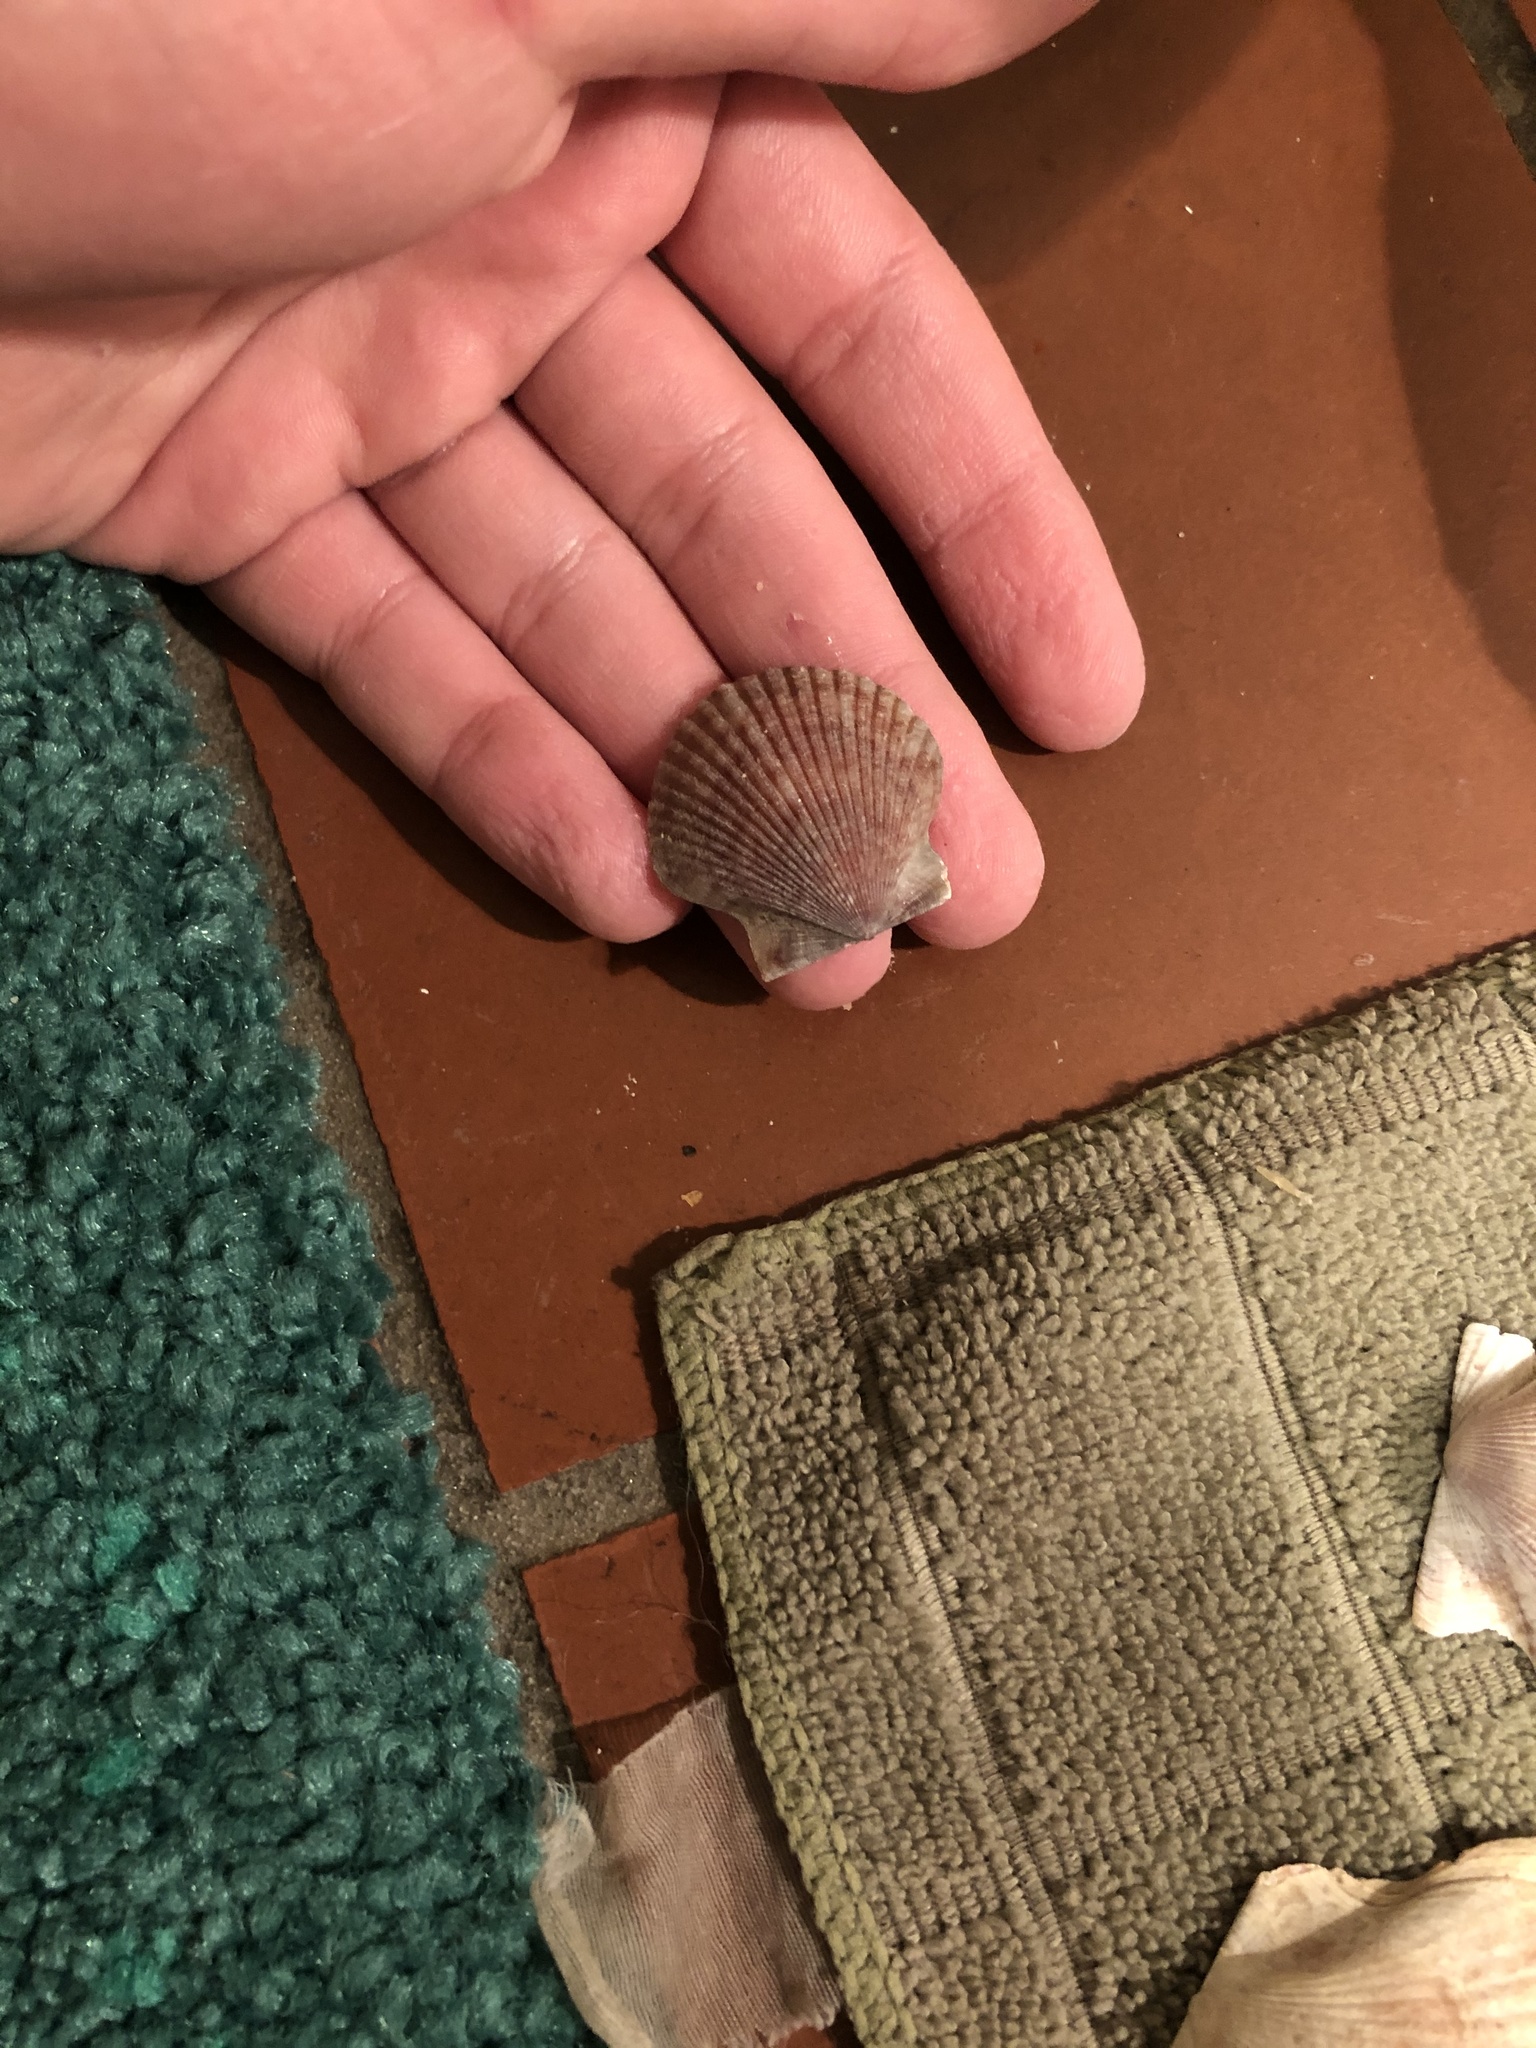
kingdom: Animalia
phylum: Mollusca
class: Bivalvia
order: Pectinida
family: Pectinidae
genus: Argopecten
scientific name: Argopecten ventricosus
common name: Catarina scallop
